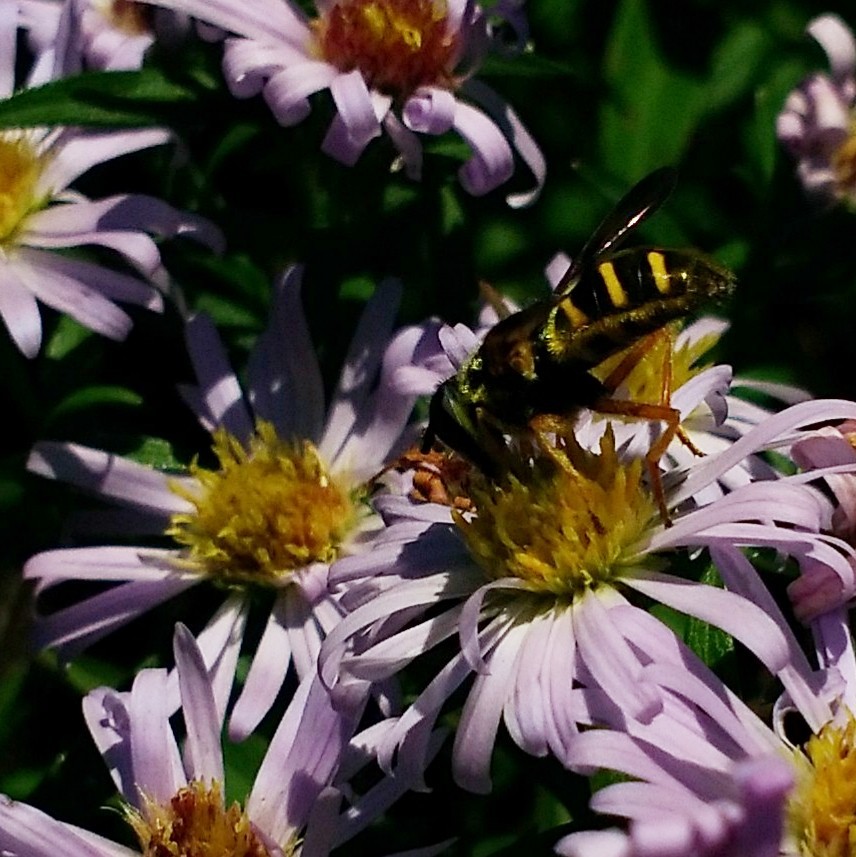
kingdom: Animalia
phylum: Arthropoda
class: Insecta
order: Diptera
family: Syrphidae
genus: Sericomyia
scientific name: Sericomyia chrysotoxoides
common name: Oblique-banded pond fly
